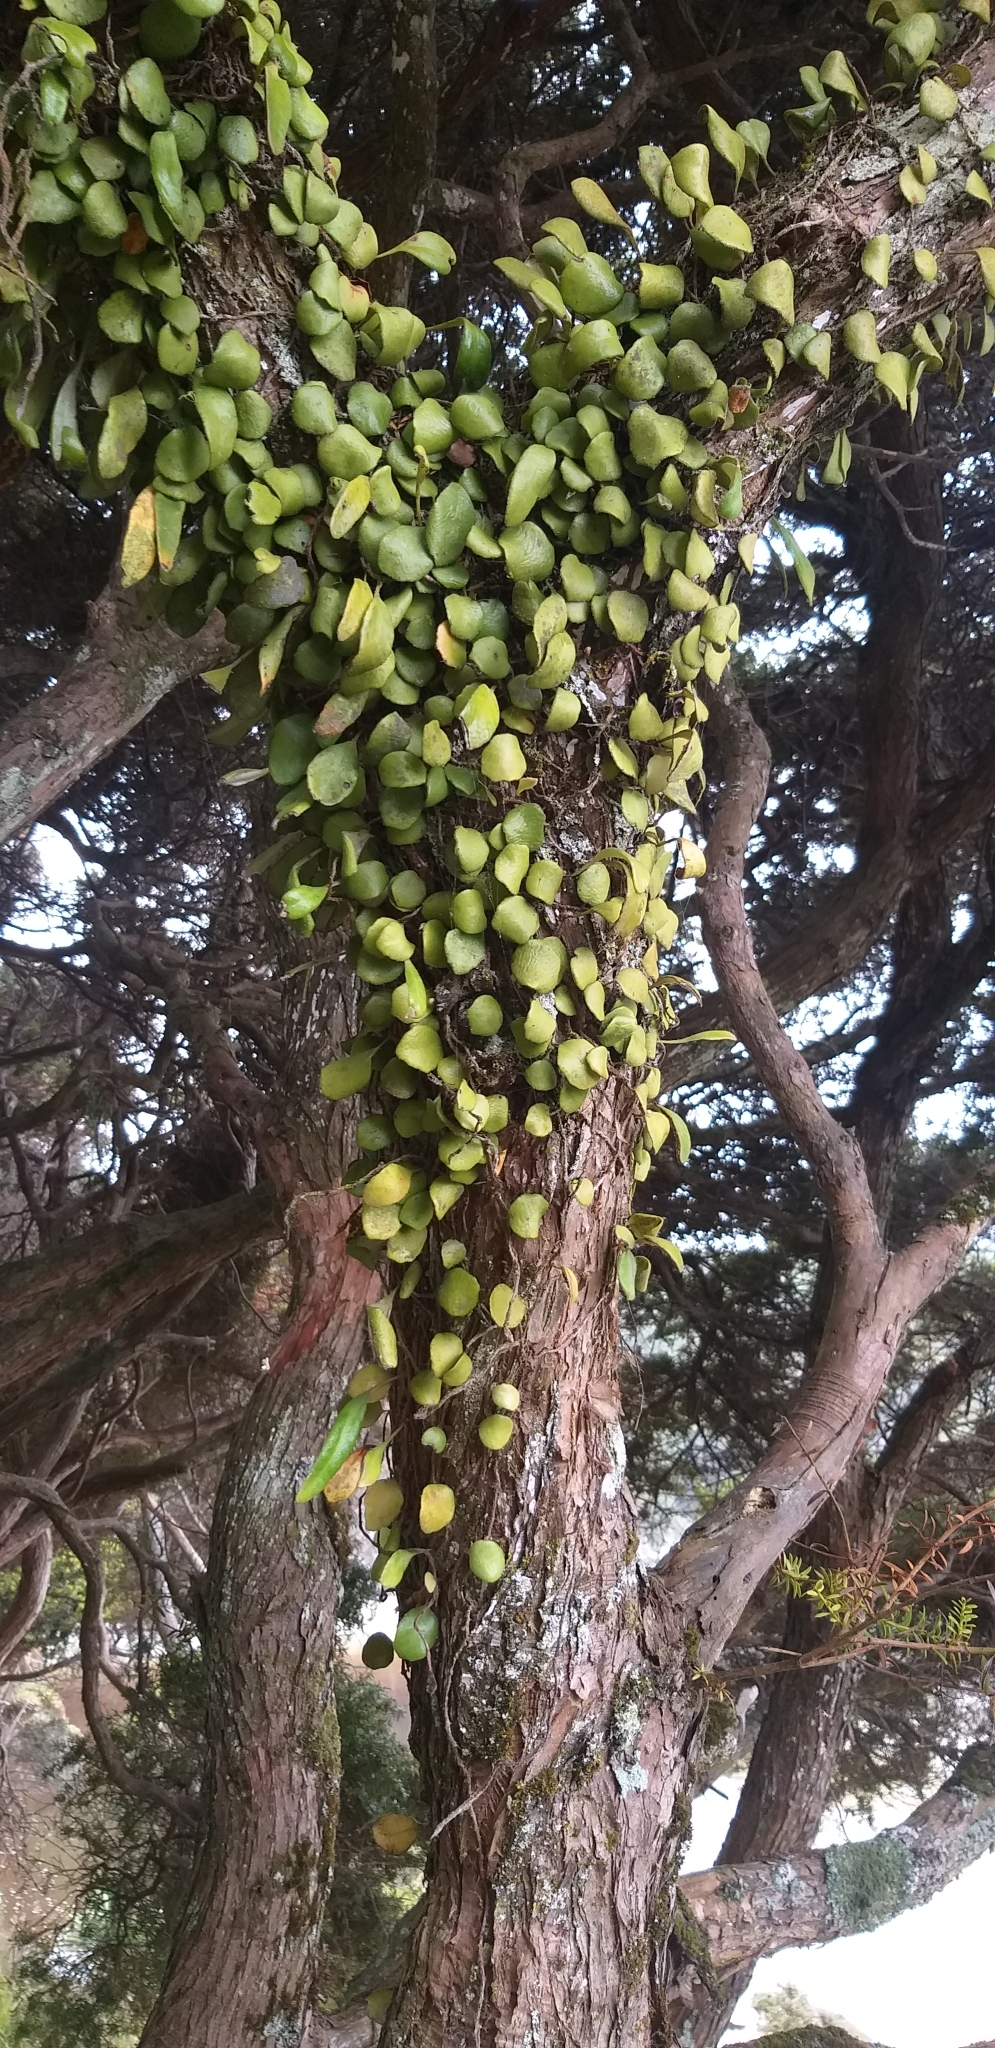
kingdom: Plantae
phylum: Tracheophyta
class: Polypodiopsida
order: Polypodiales
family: Polypodiaceae
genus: Pyrrosia
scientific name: Pyrrosia eleagnifolia
